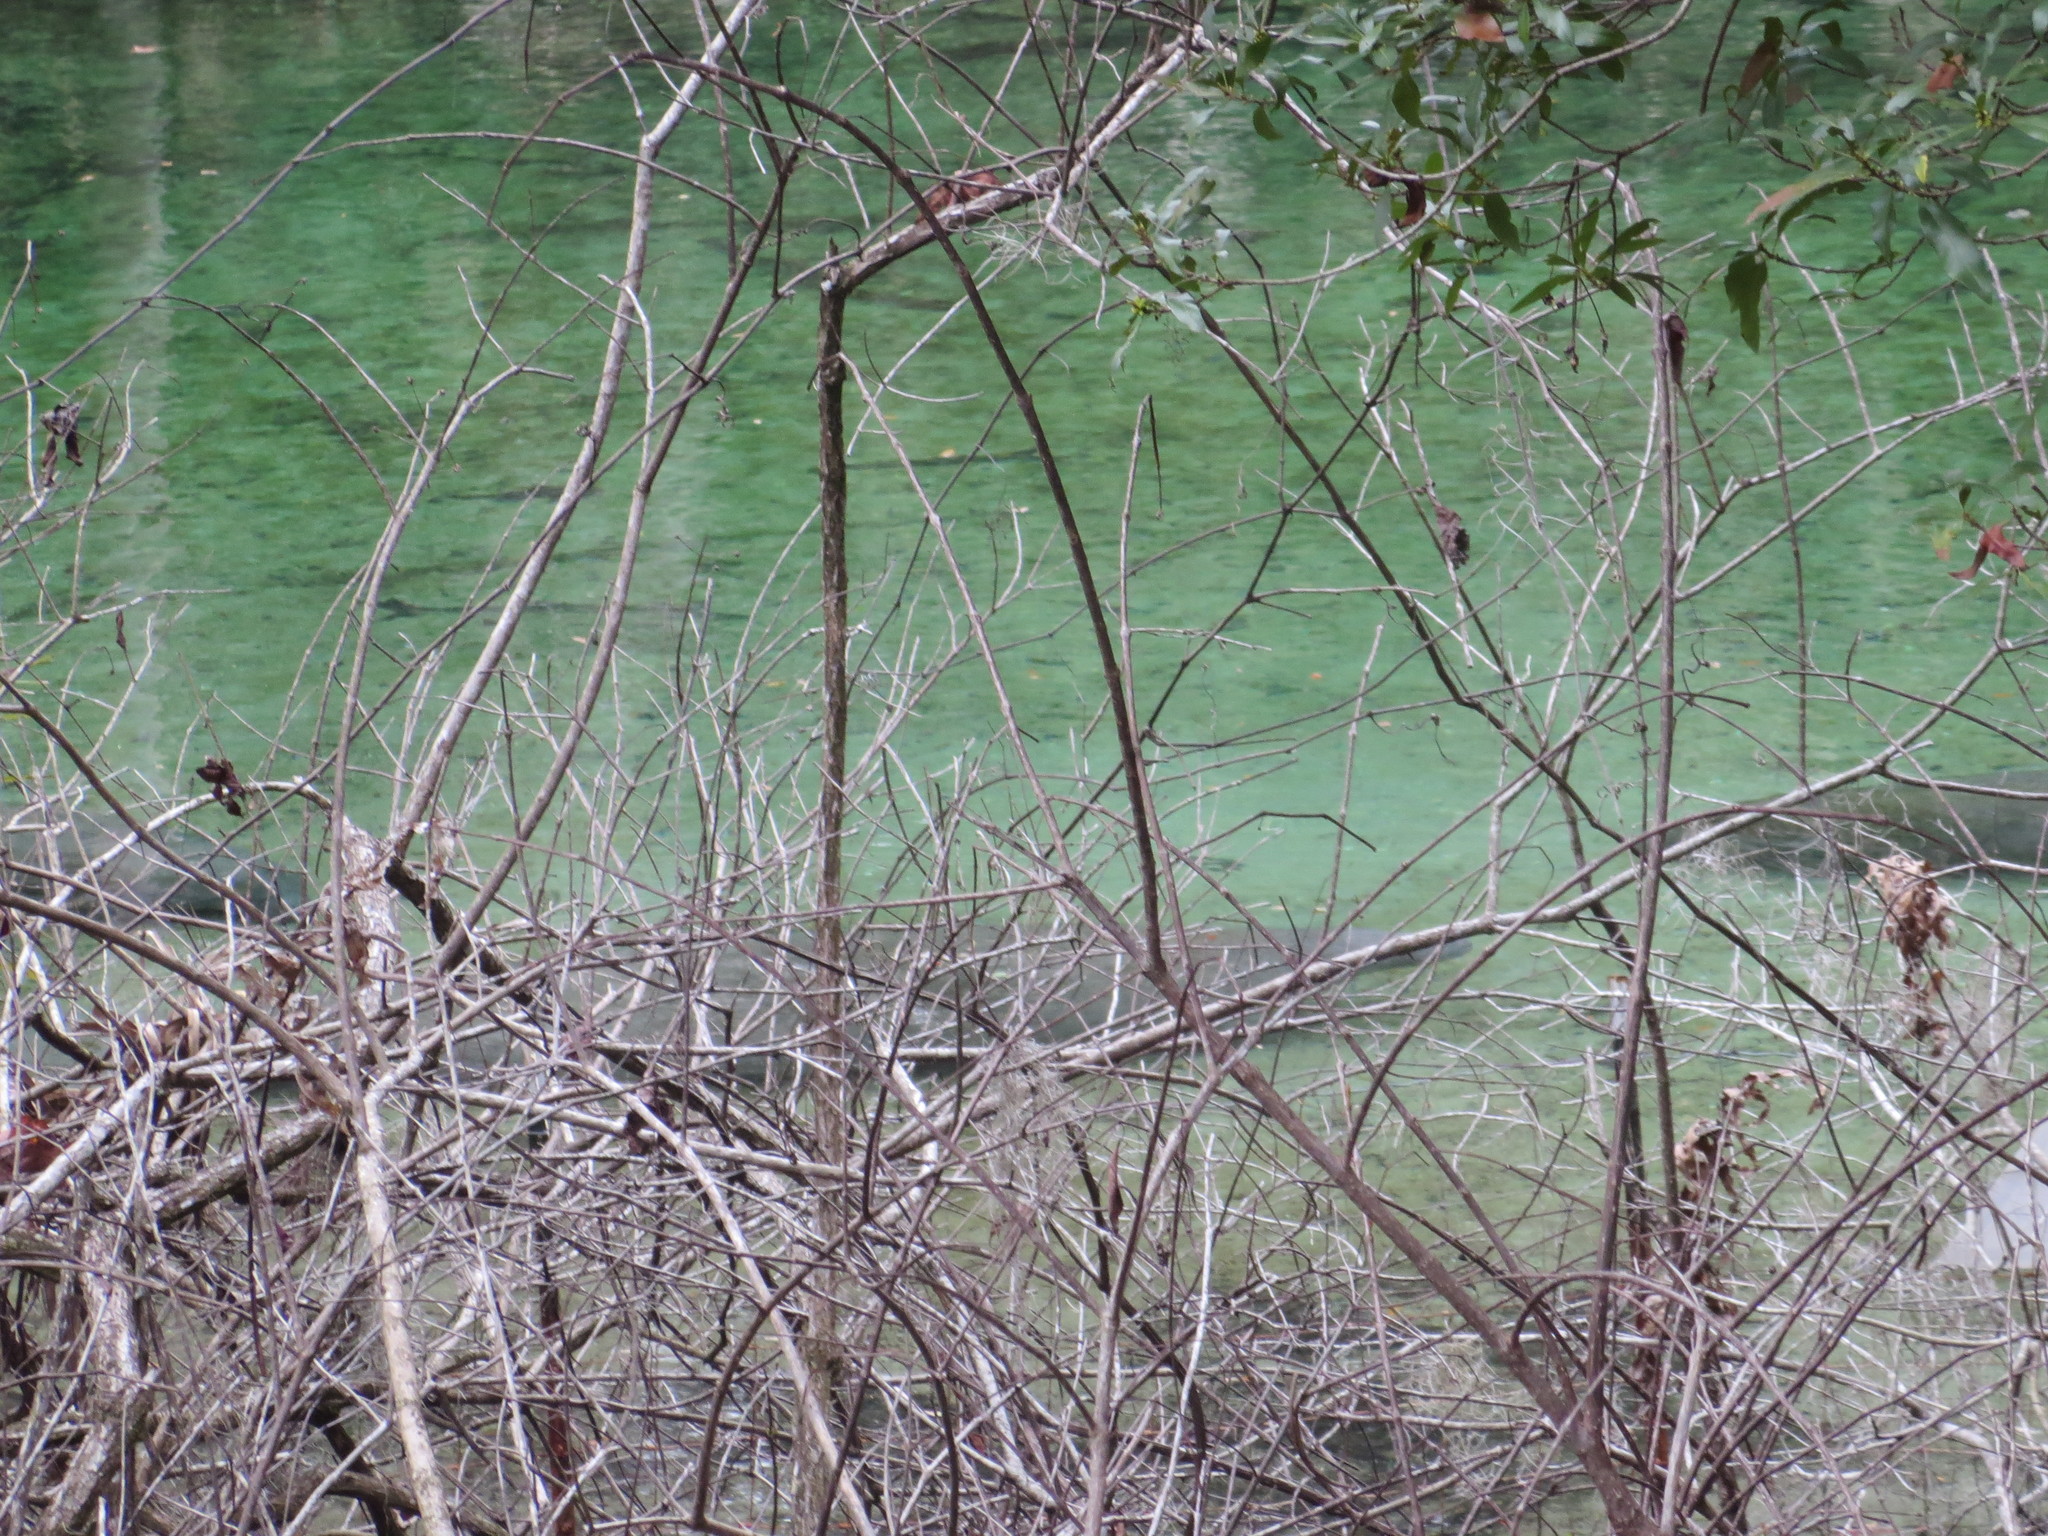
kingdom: Animalia
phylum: Chordata
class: Mammalia
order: Sirenia
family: Trichechidae
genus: Trichechus
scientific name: Trichechus manatus
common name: West indian manatee
